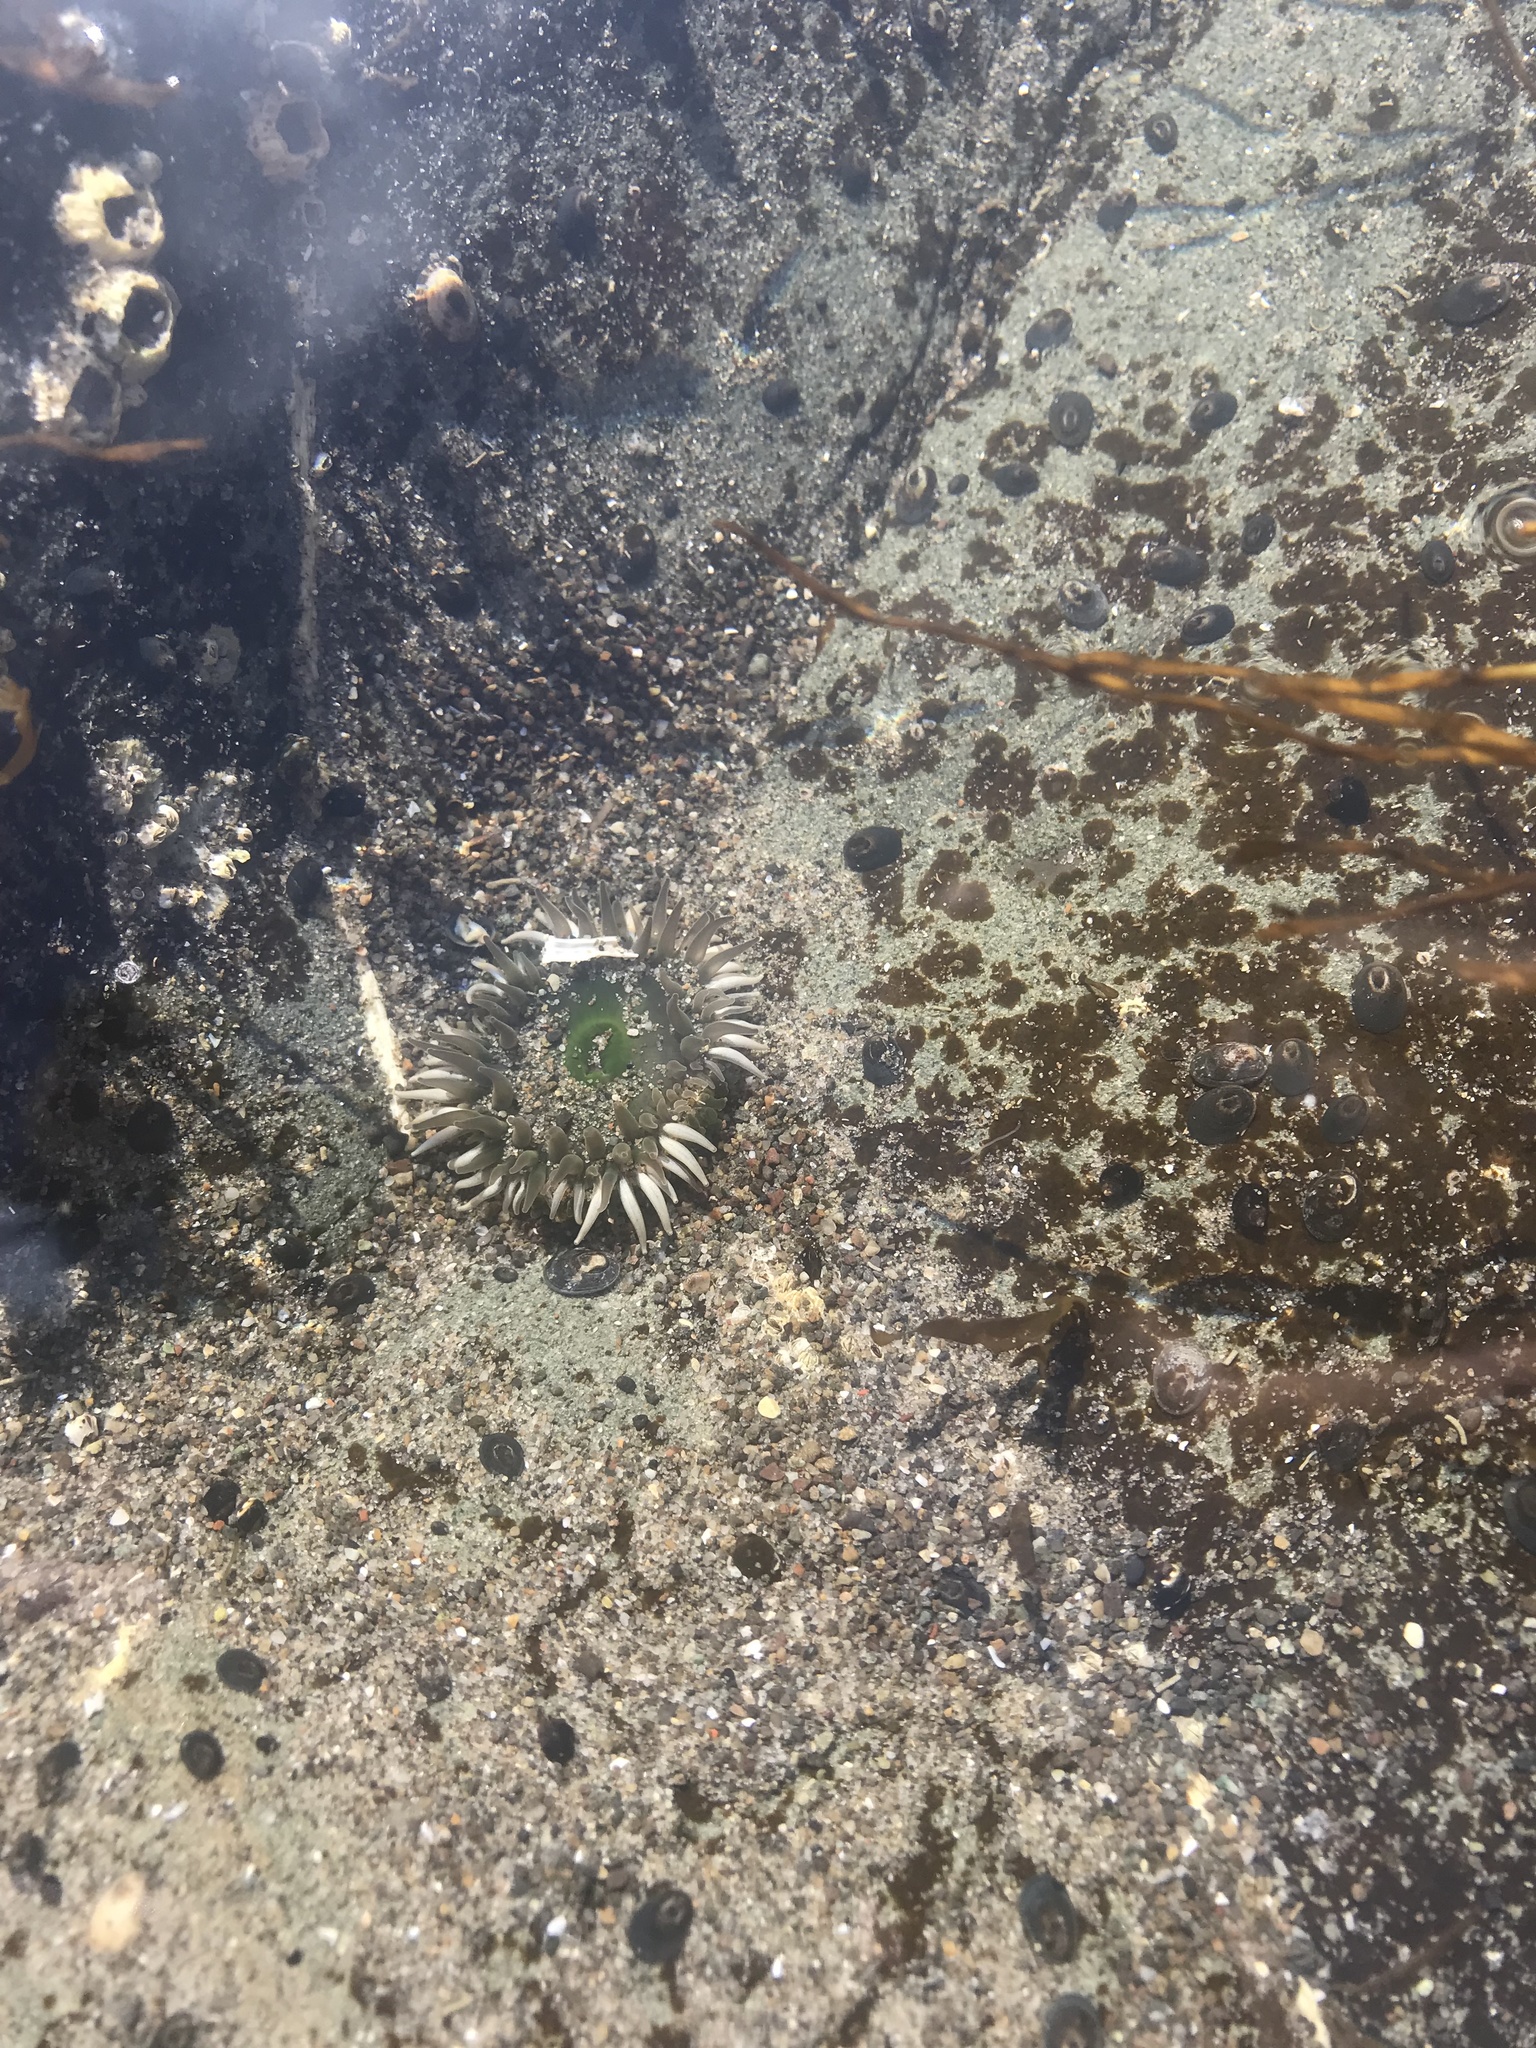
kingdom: Animalia
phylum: Cnidaria
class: Anthozoa
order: Actiniaria
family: Actiniidae
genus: Anthopleura
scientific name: Anthopleura xanthogrammica
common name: Giant green anemone
